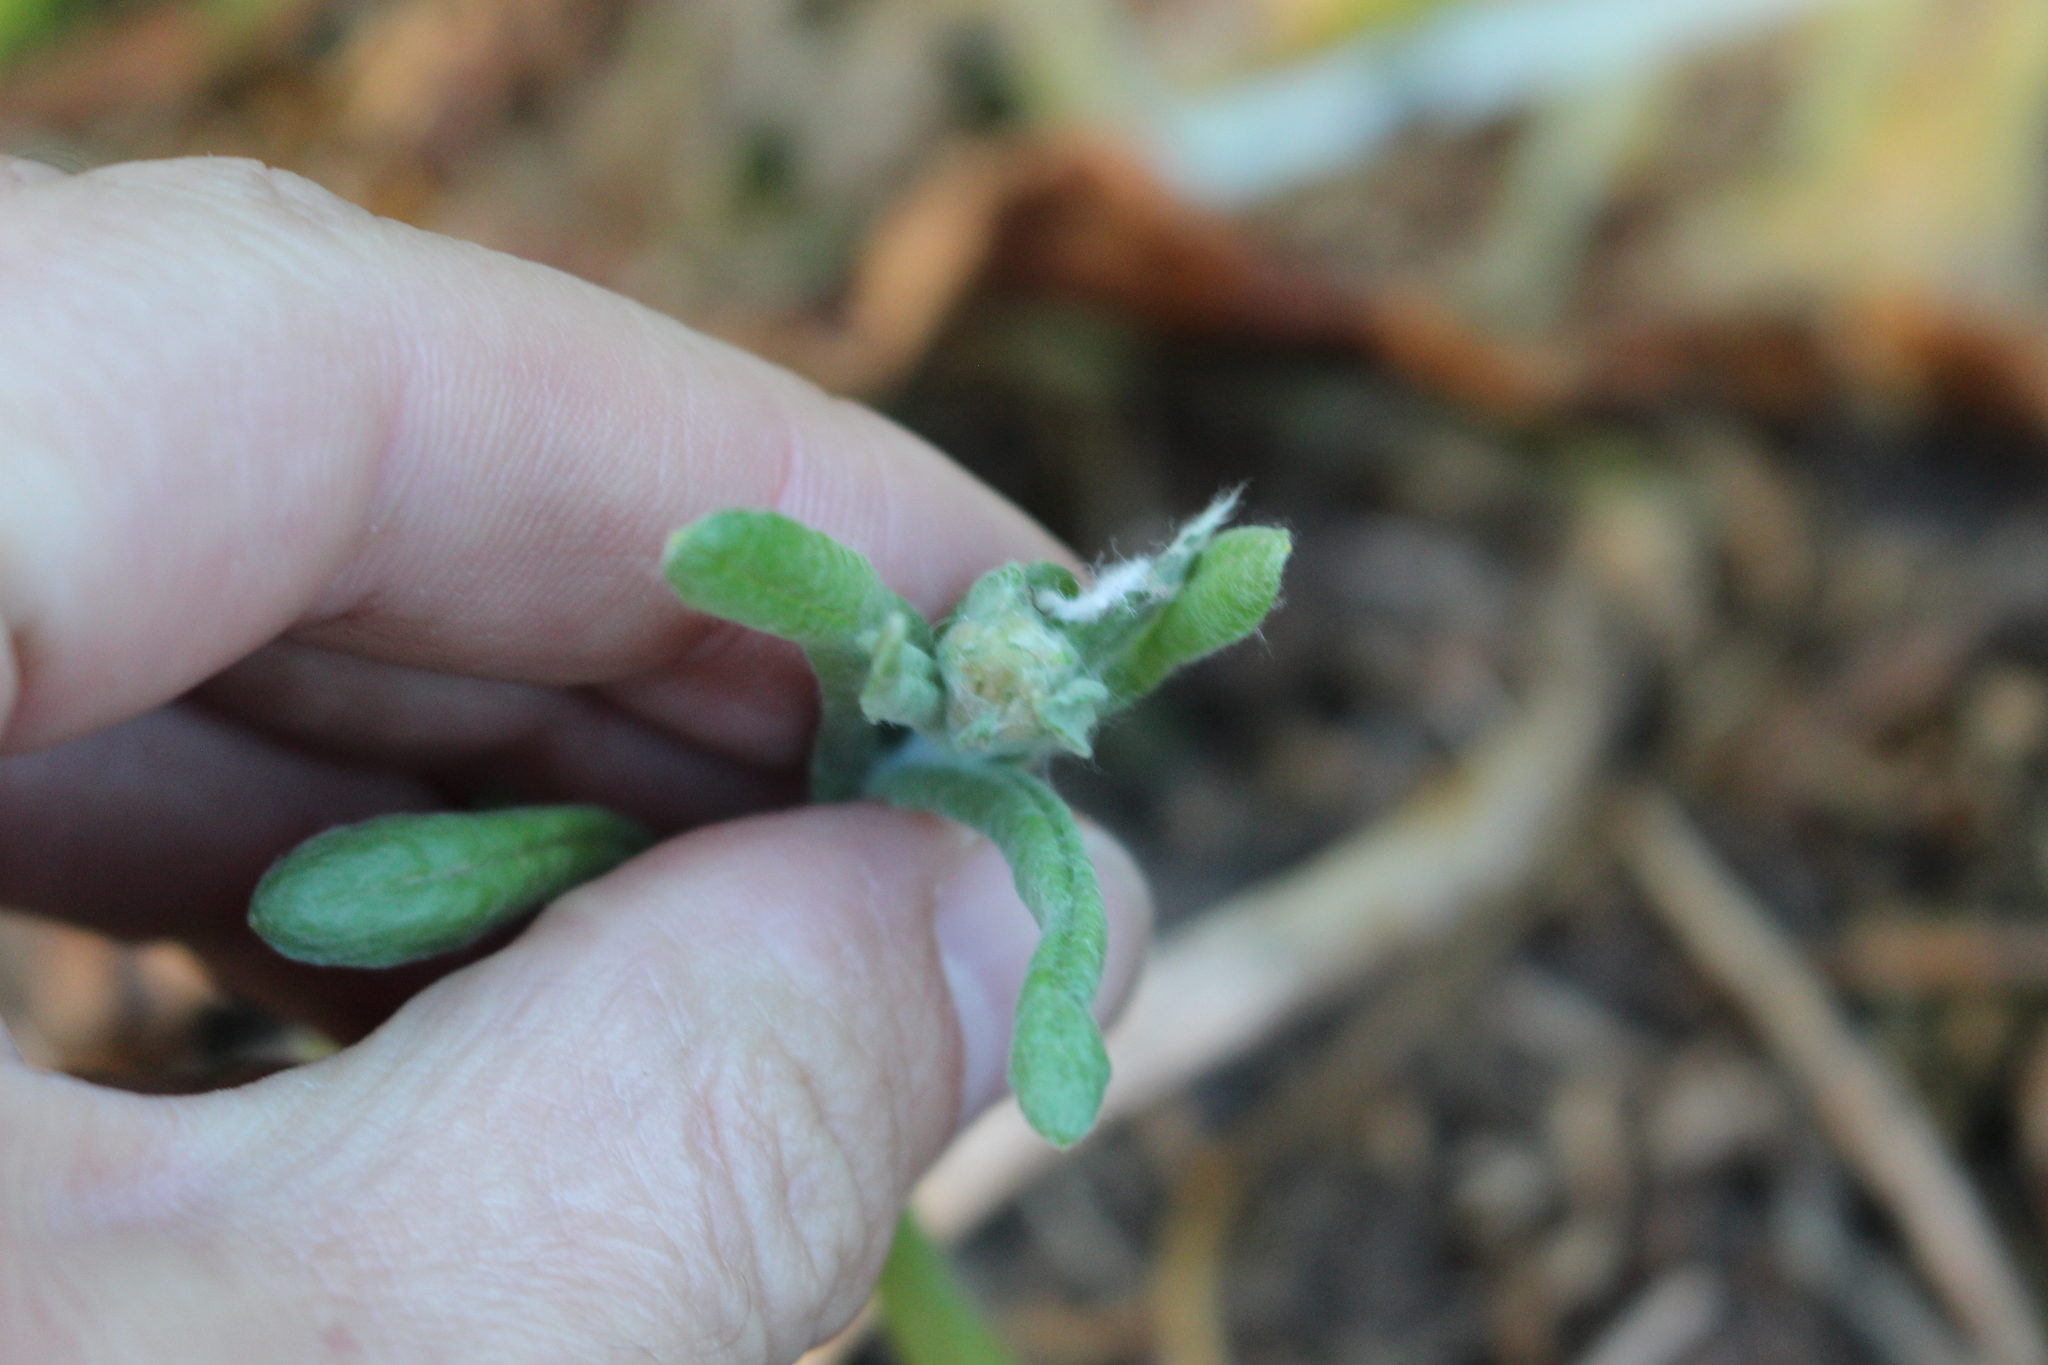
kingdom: Plantae
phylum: Tracheophyta
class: Magnoliopsida
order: Asterales
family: Asteraceae
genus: Helichrysum
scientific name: Helichrysum luteoalbum
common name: Daisy
